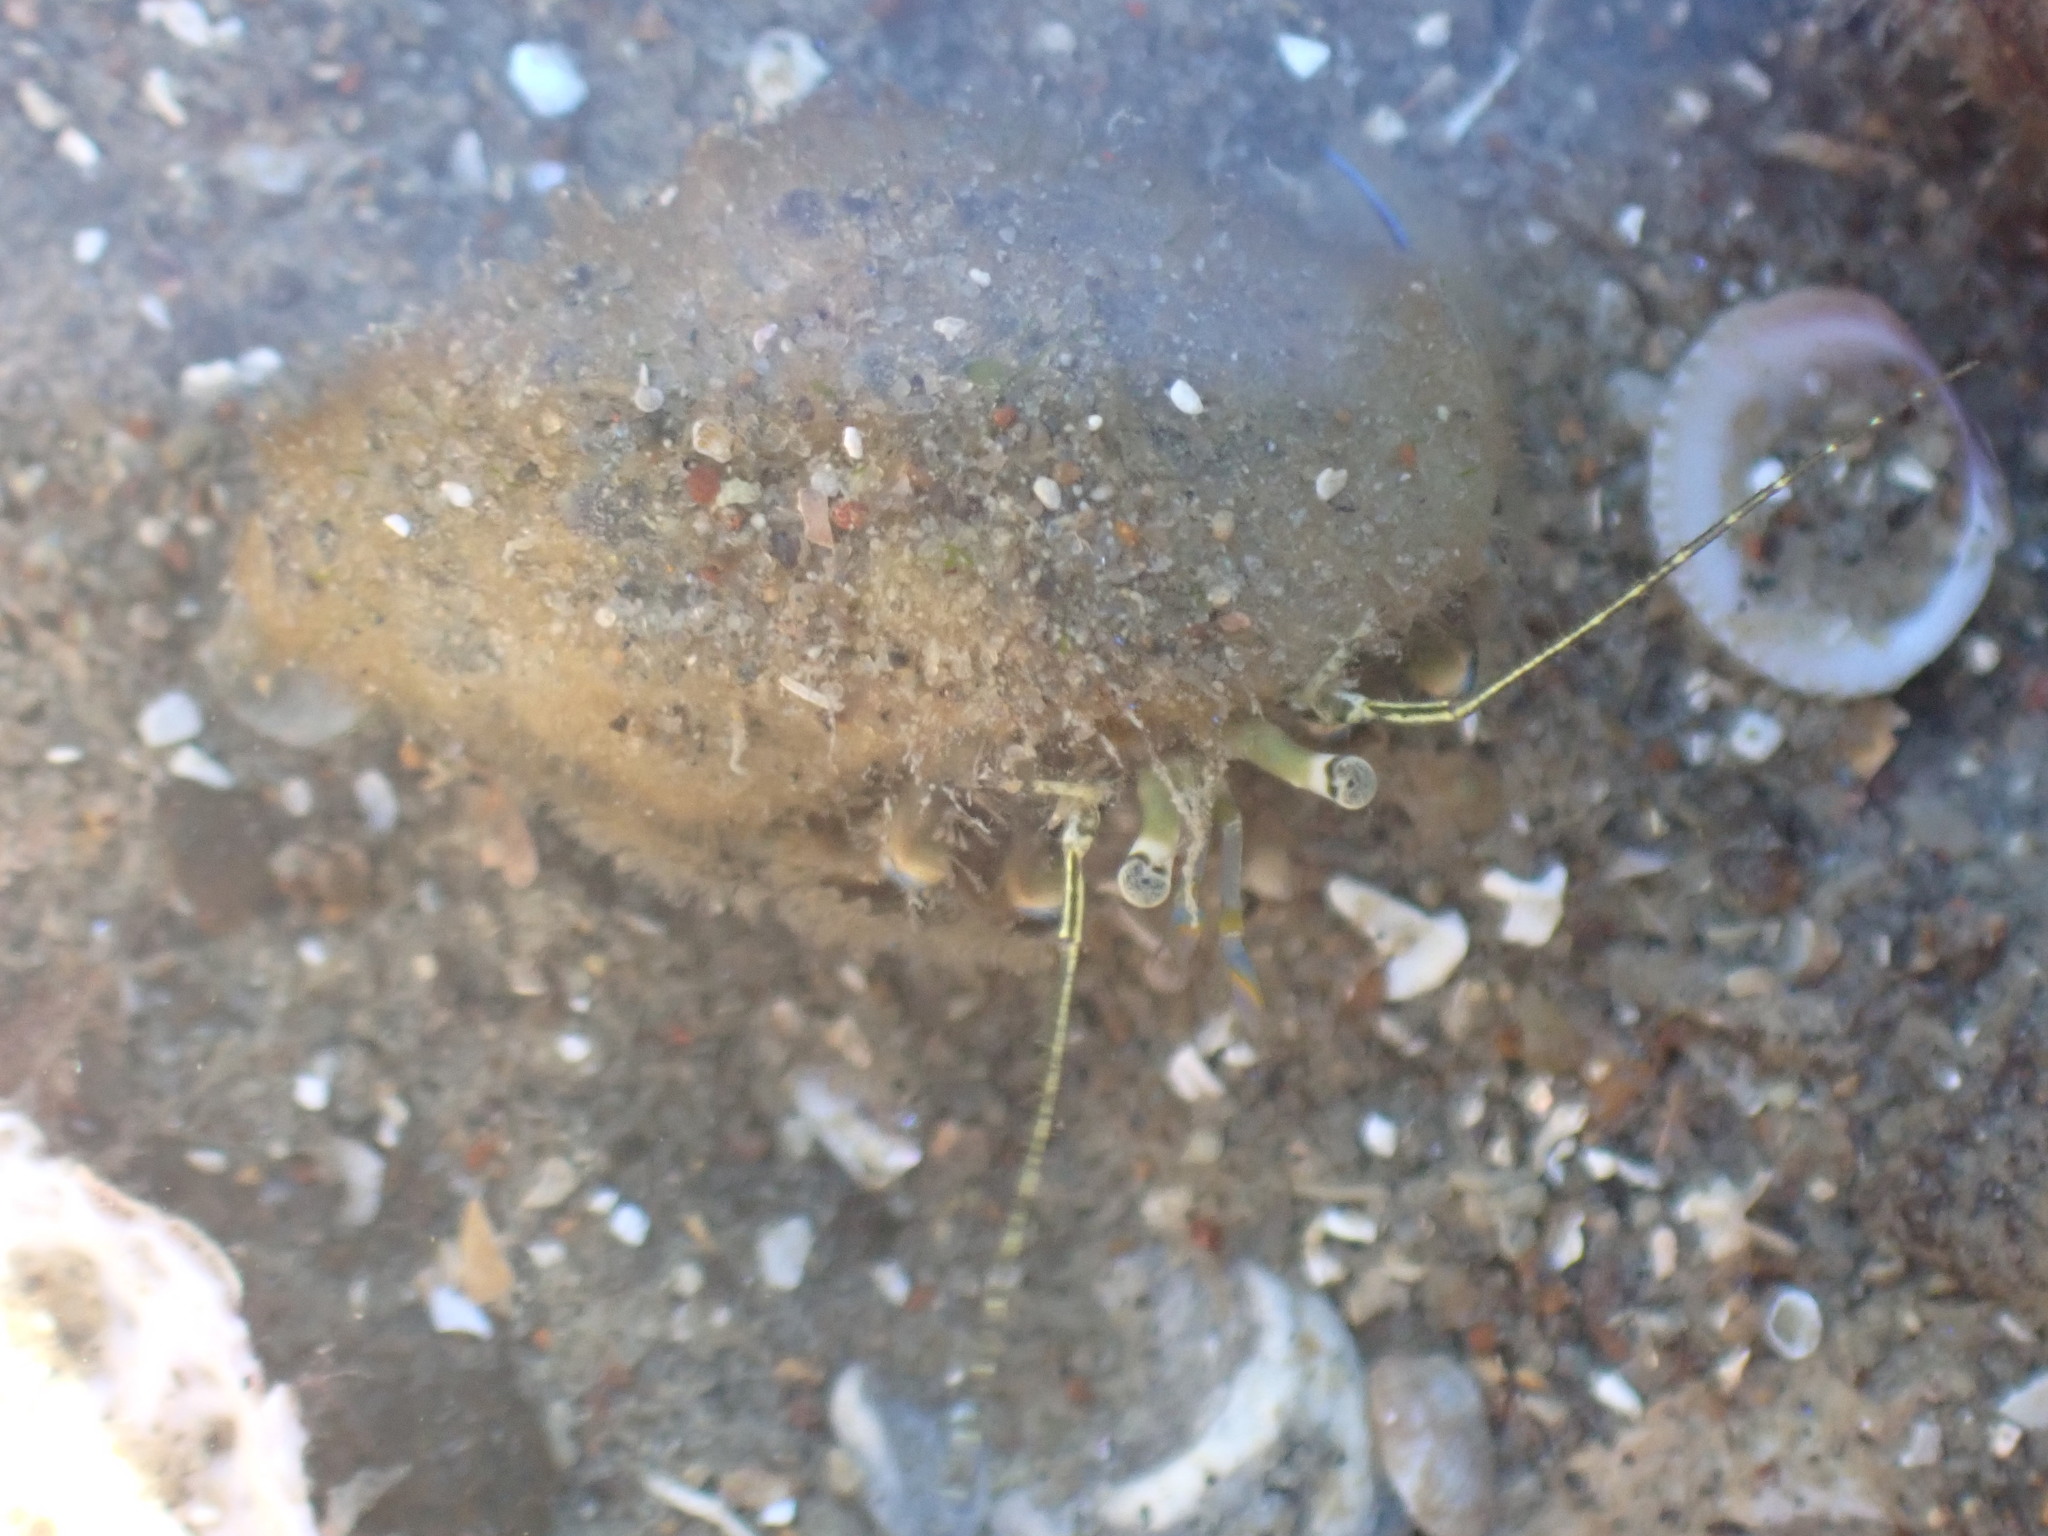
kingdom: Animalia
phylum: Arthropoda
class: Malacostraca
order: Decapoda
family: Paguridae
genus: Pagurus
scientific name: Pagurus novizealandiae
